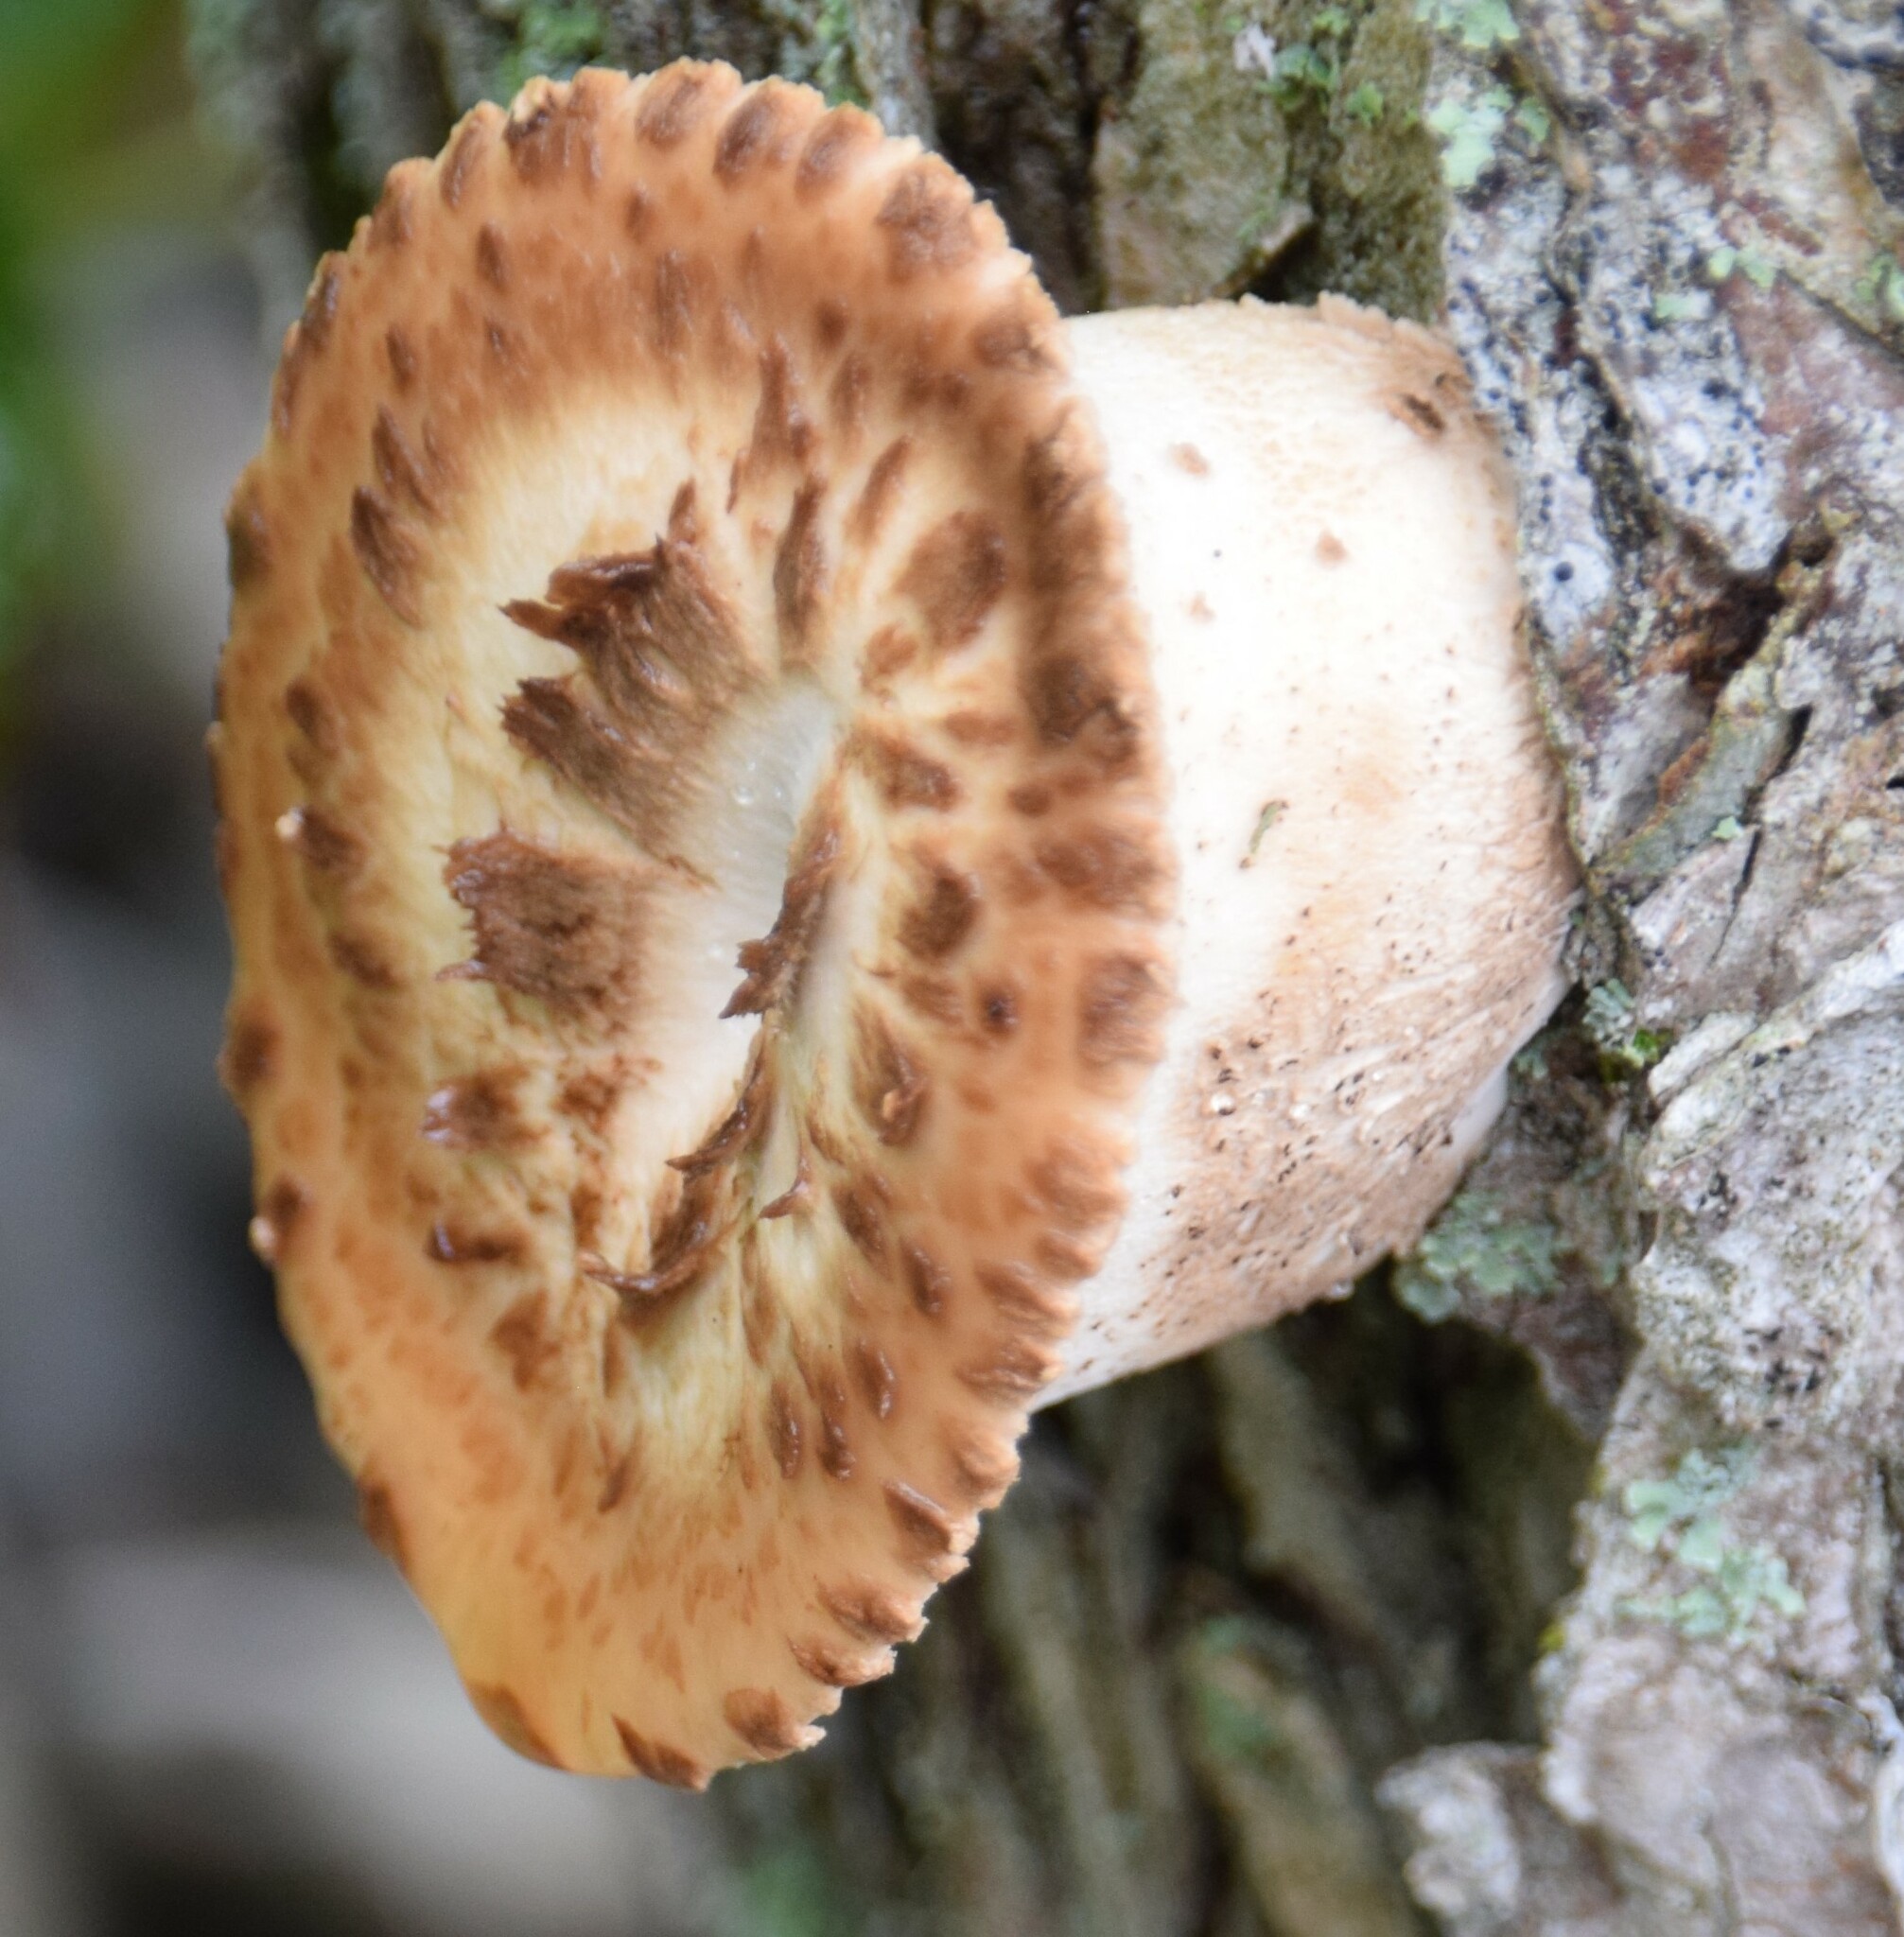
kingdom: Fungi
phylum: Basidiomycota
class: Agaricomycetes
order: Polyporales
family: Polyporaceae
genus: Cerioporus
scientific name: Cerioporus squamosus
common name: Dryad's saddle
